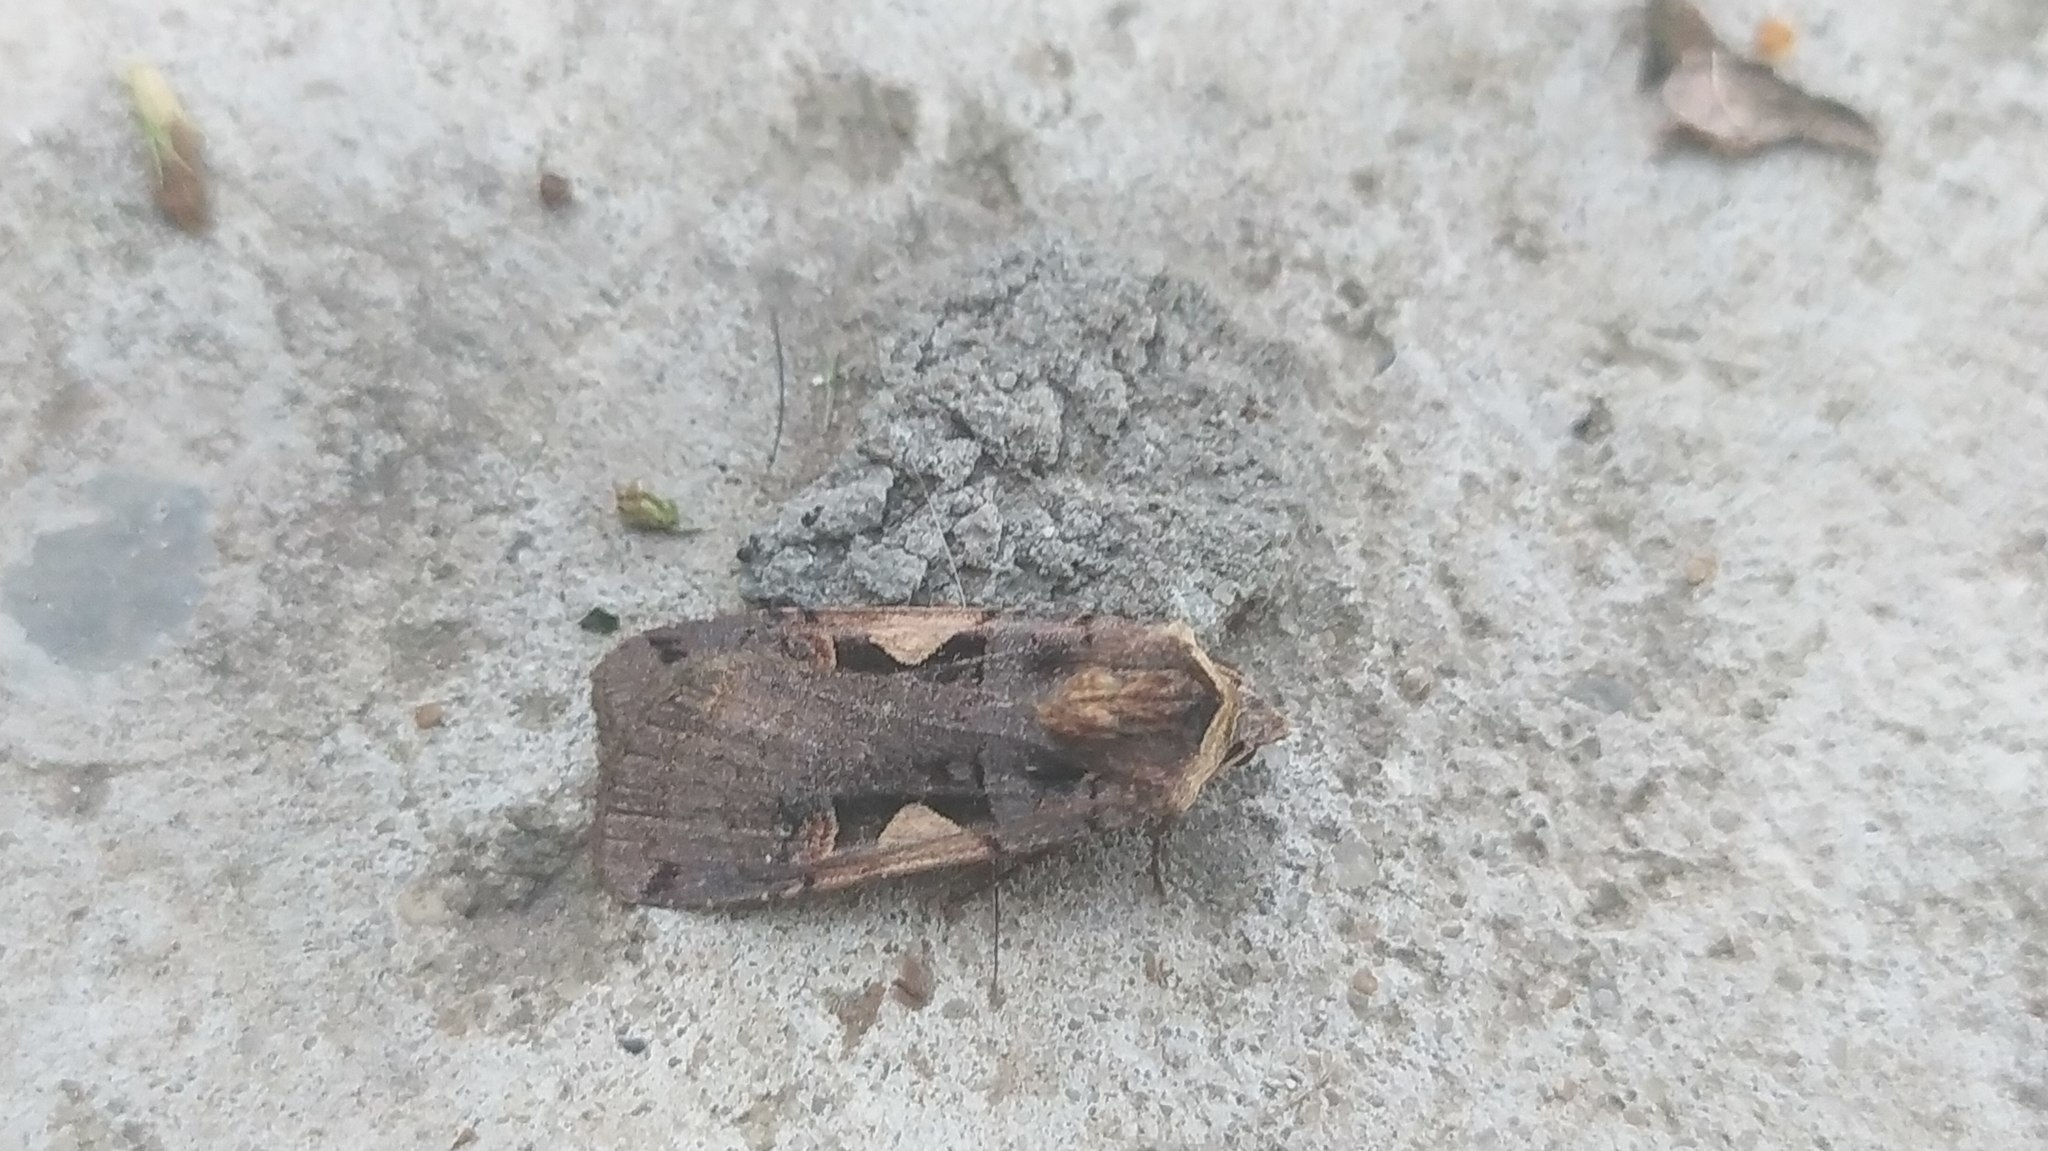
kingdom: Animalia
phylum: Arthropoda
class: Insecta
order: Lepidoptera
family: Noctuidae
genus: Xestia
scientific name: Xestia c-nigrum
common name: Setaceous hebrew character
